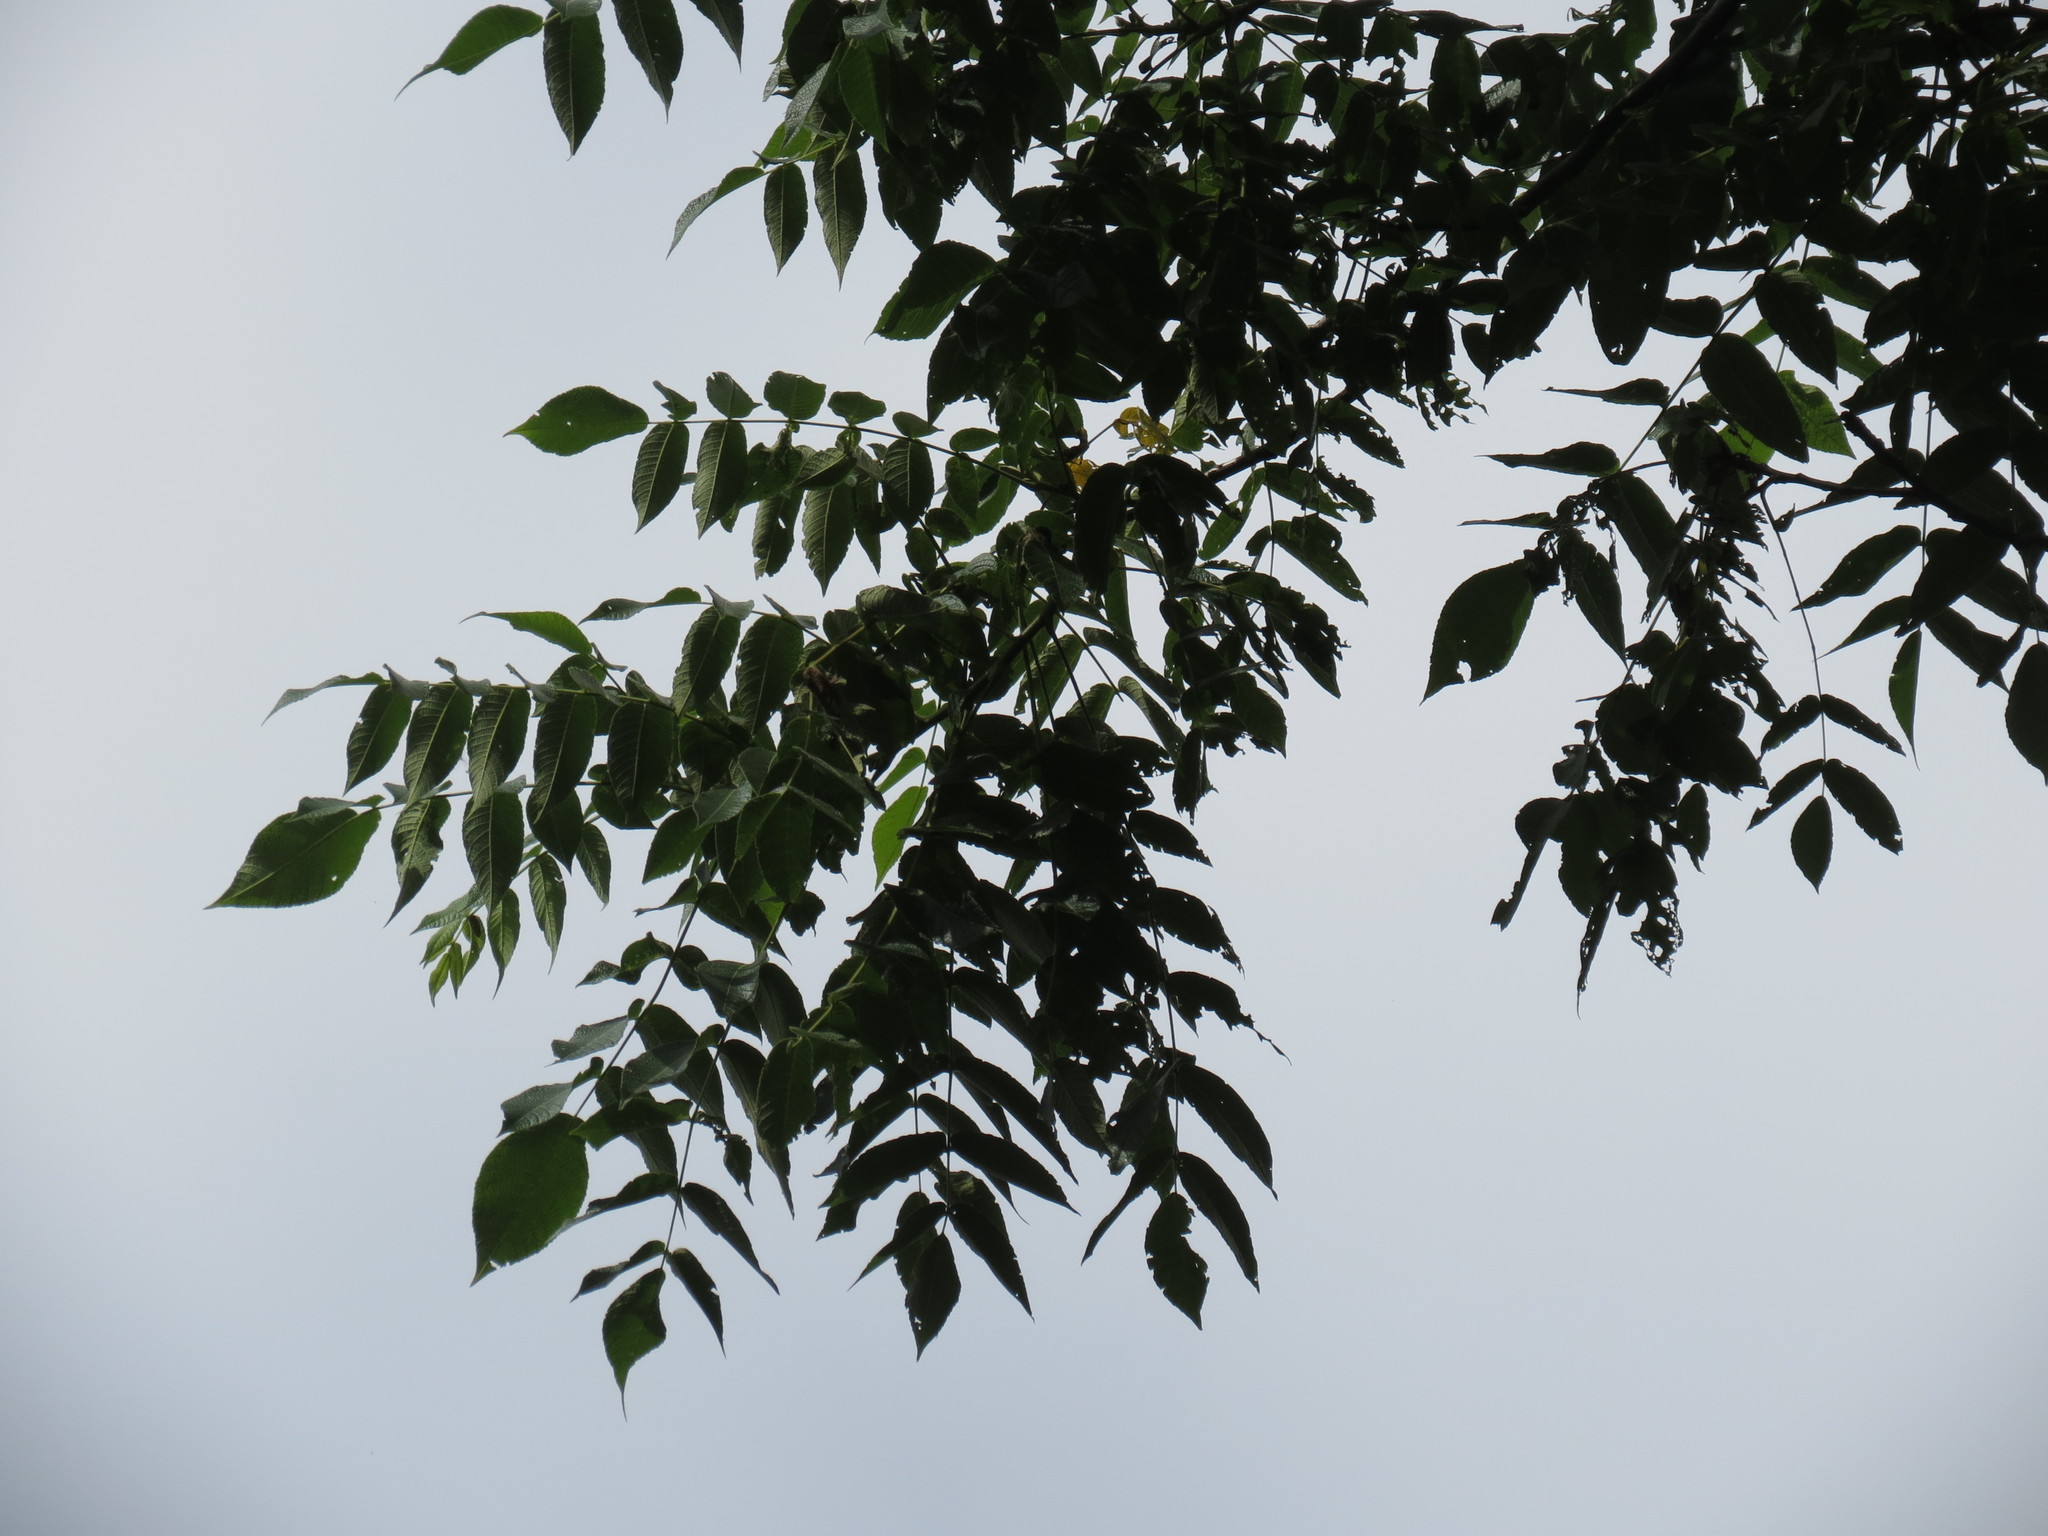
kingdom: Plantae
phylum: Tracheophyta
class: Magnoliopsida
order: Fagales
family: Juglandaceae
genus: Juglans
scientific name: Juglans cinerea
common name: Butternut
